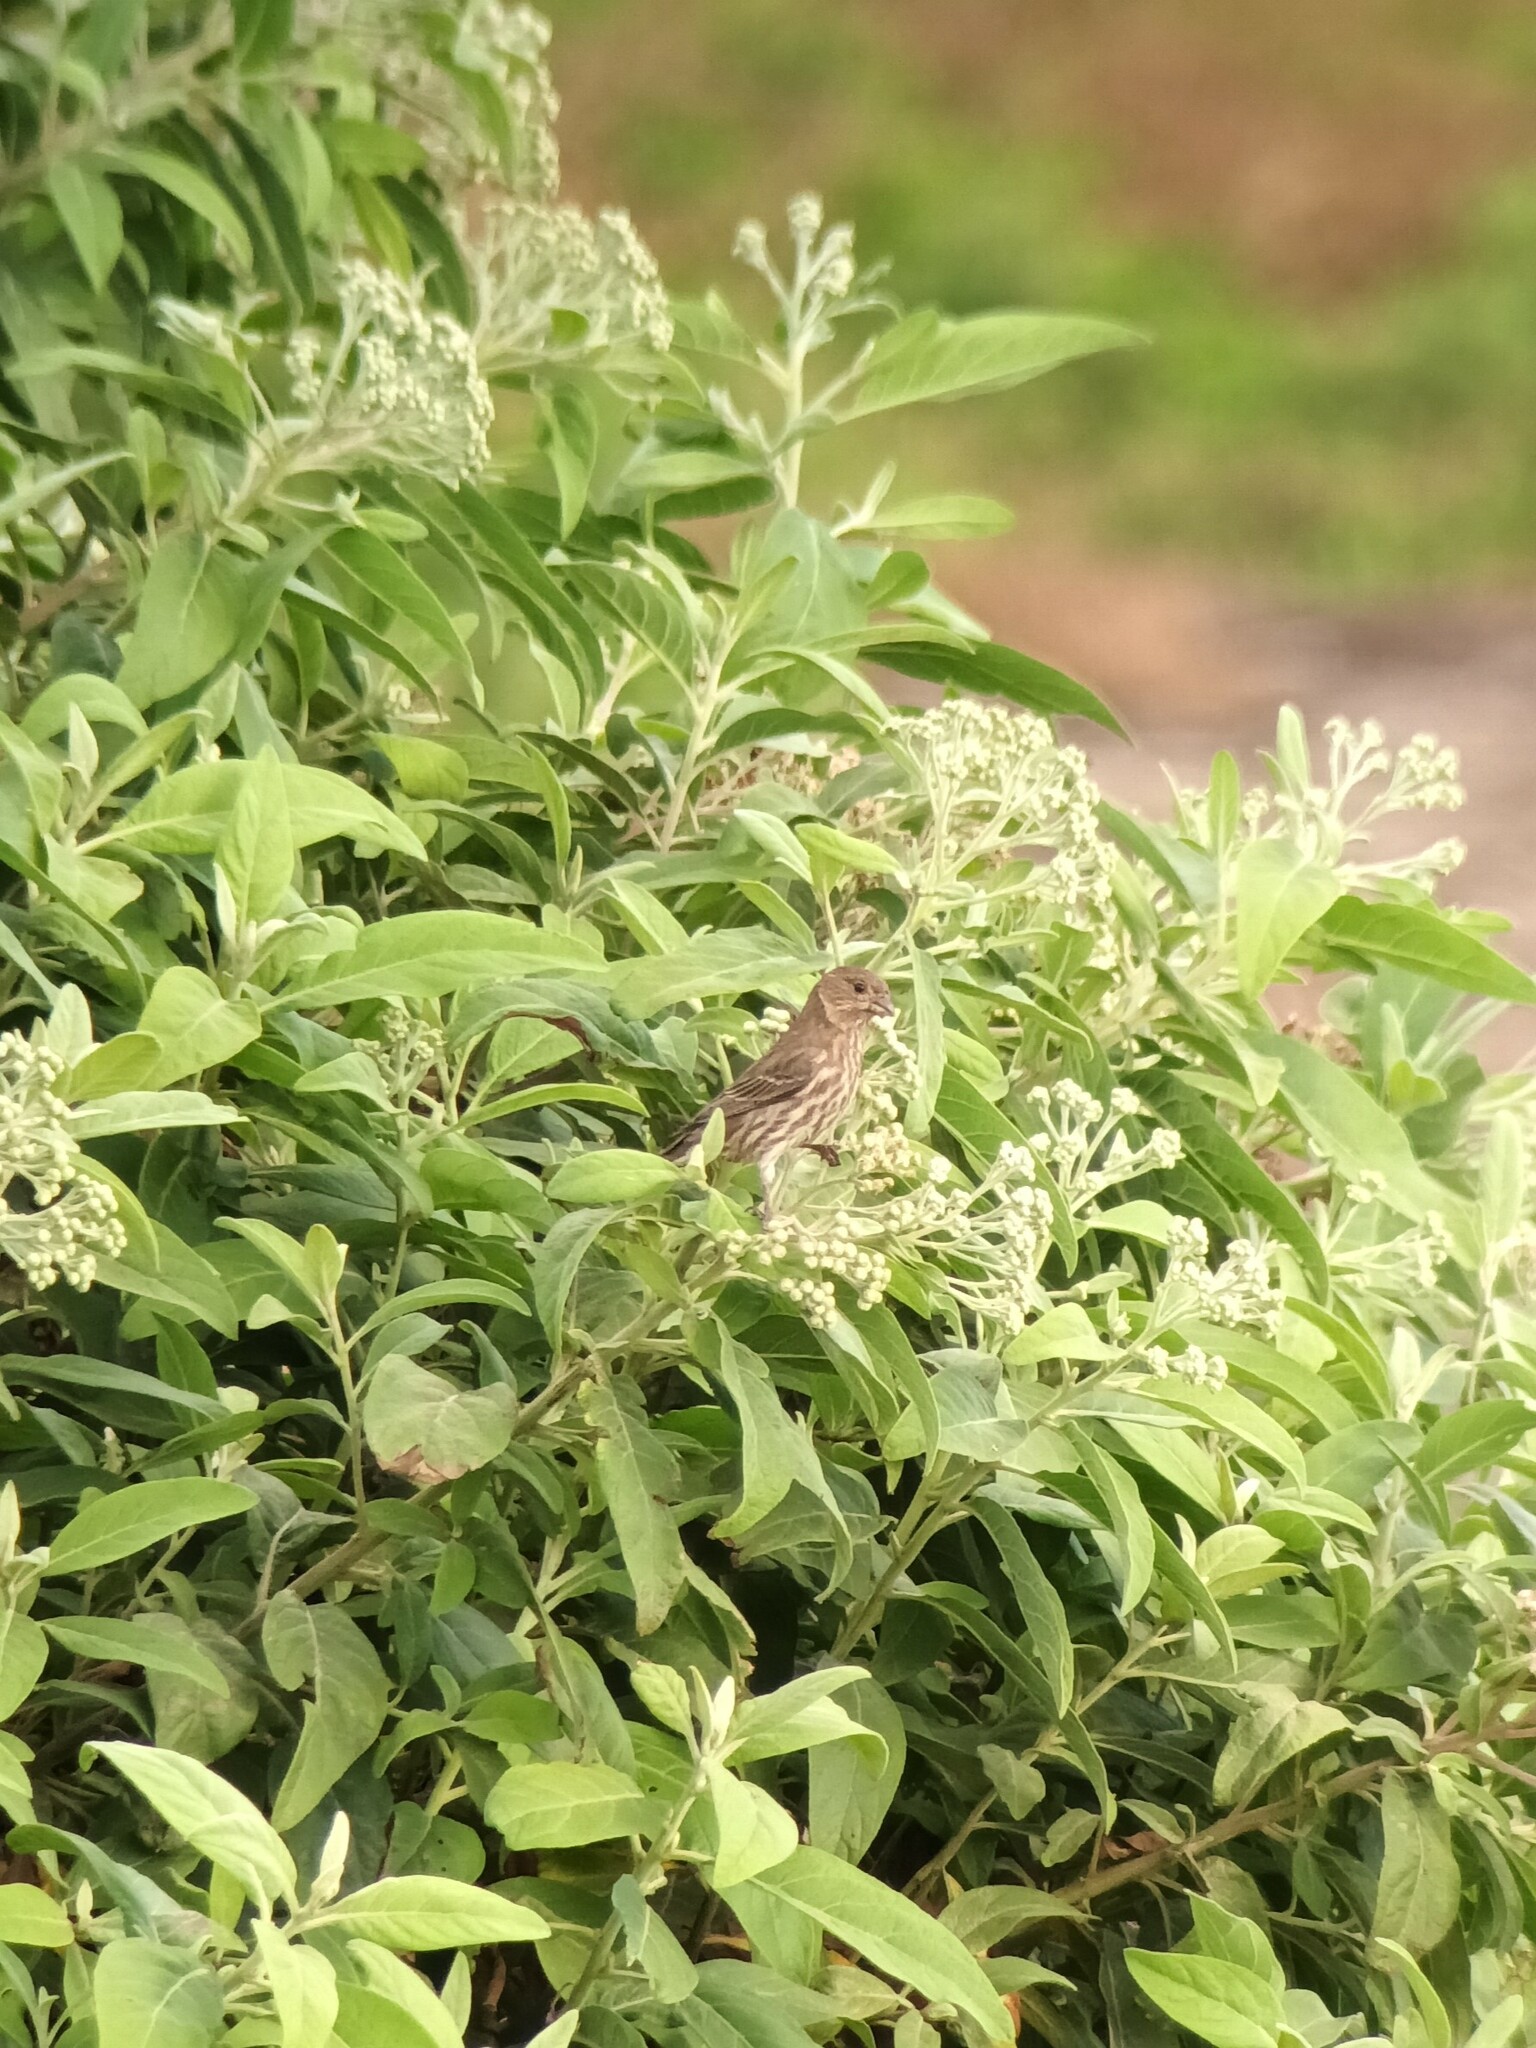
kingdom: Animalia
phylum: Chordata
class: Aves
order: Passeriformes
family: Fringillidae
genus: Haemorhous
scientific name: Haemorhous mexicanus
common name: House finch
